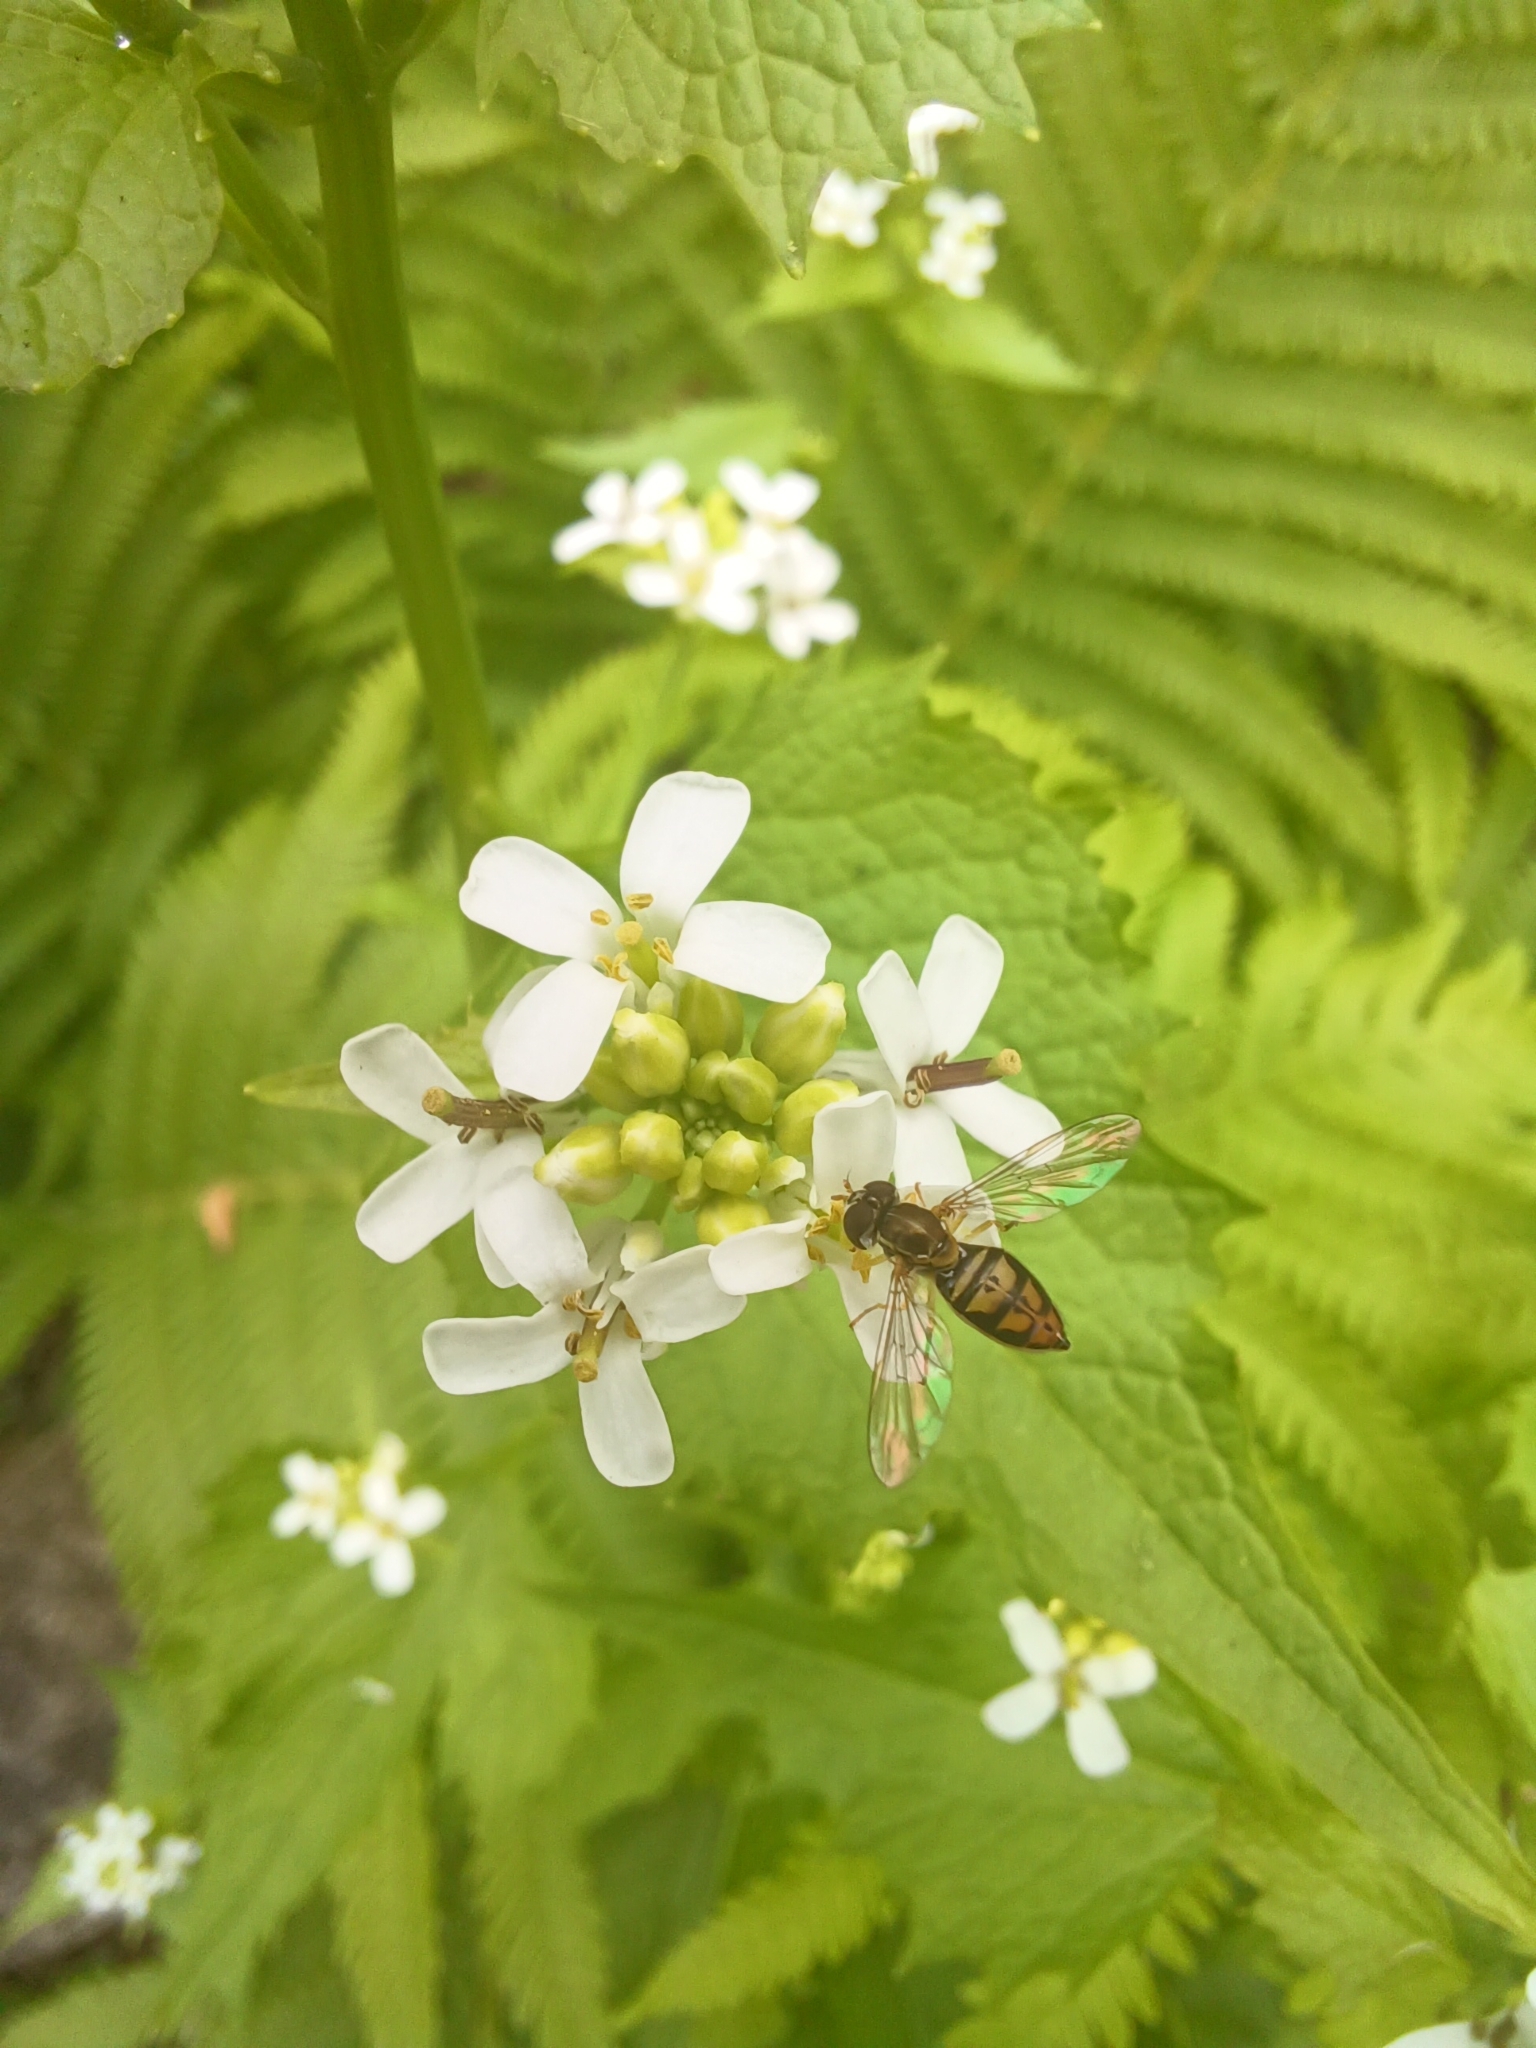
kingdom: Animalia
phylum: Arthropoda
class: Insecta
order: Diptera
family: Syrphidae
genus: Toxomerus
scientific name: Toxomerus marginatus
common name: Syrphid fly
